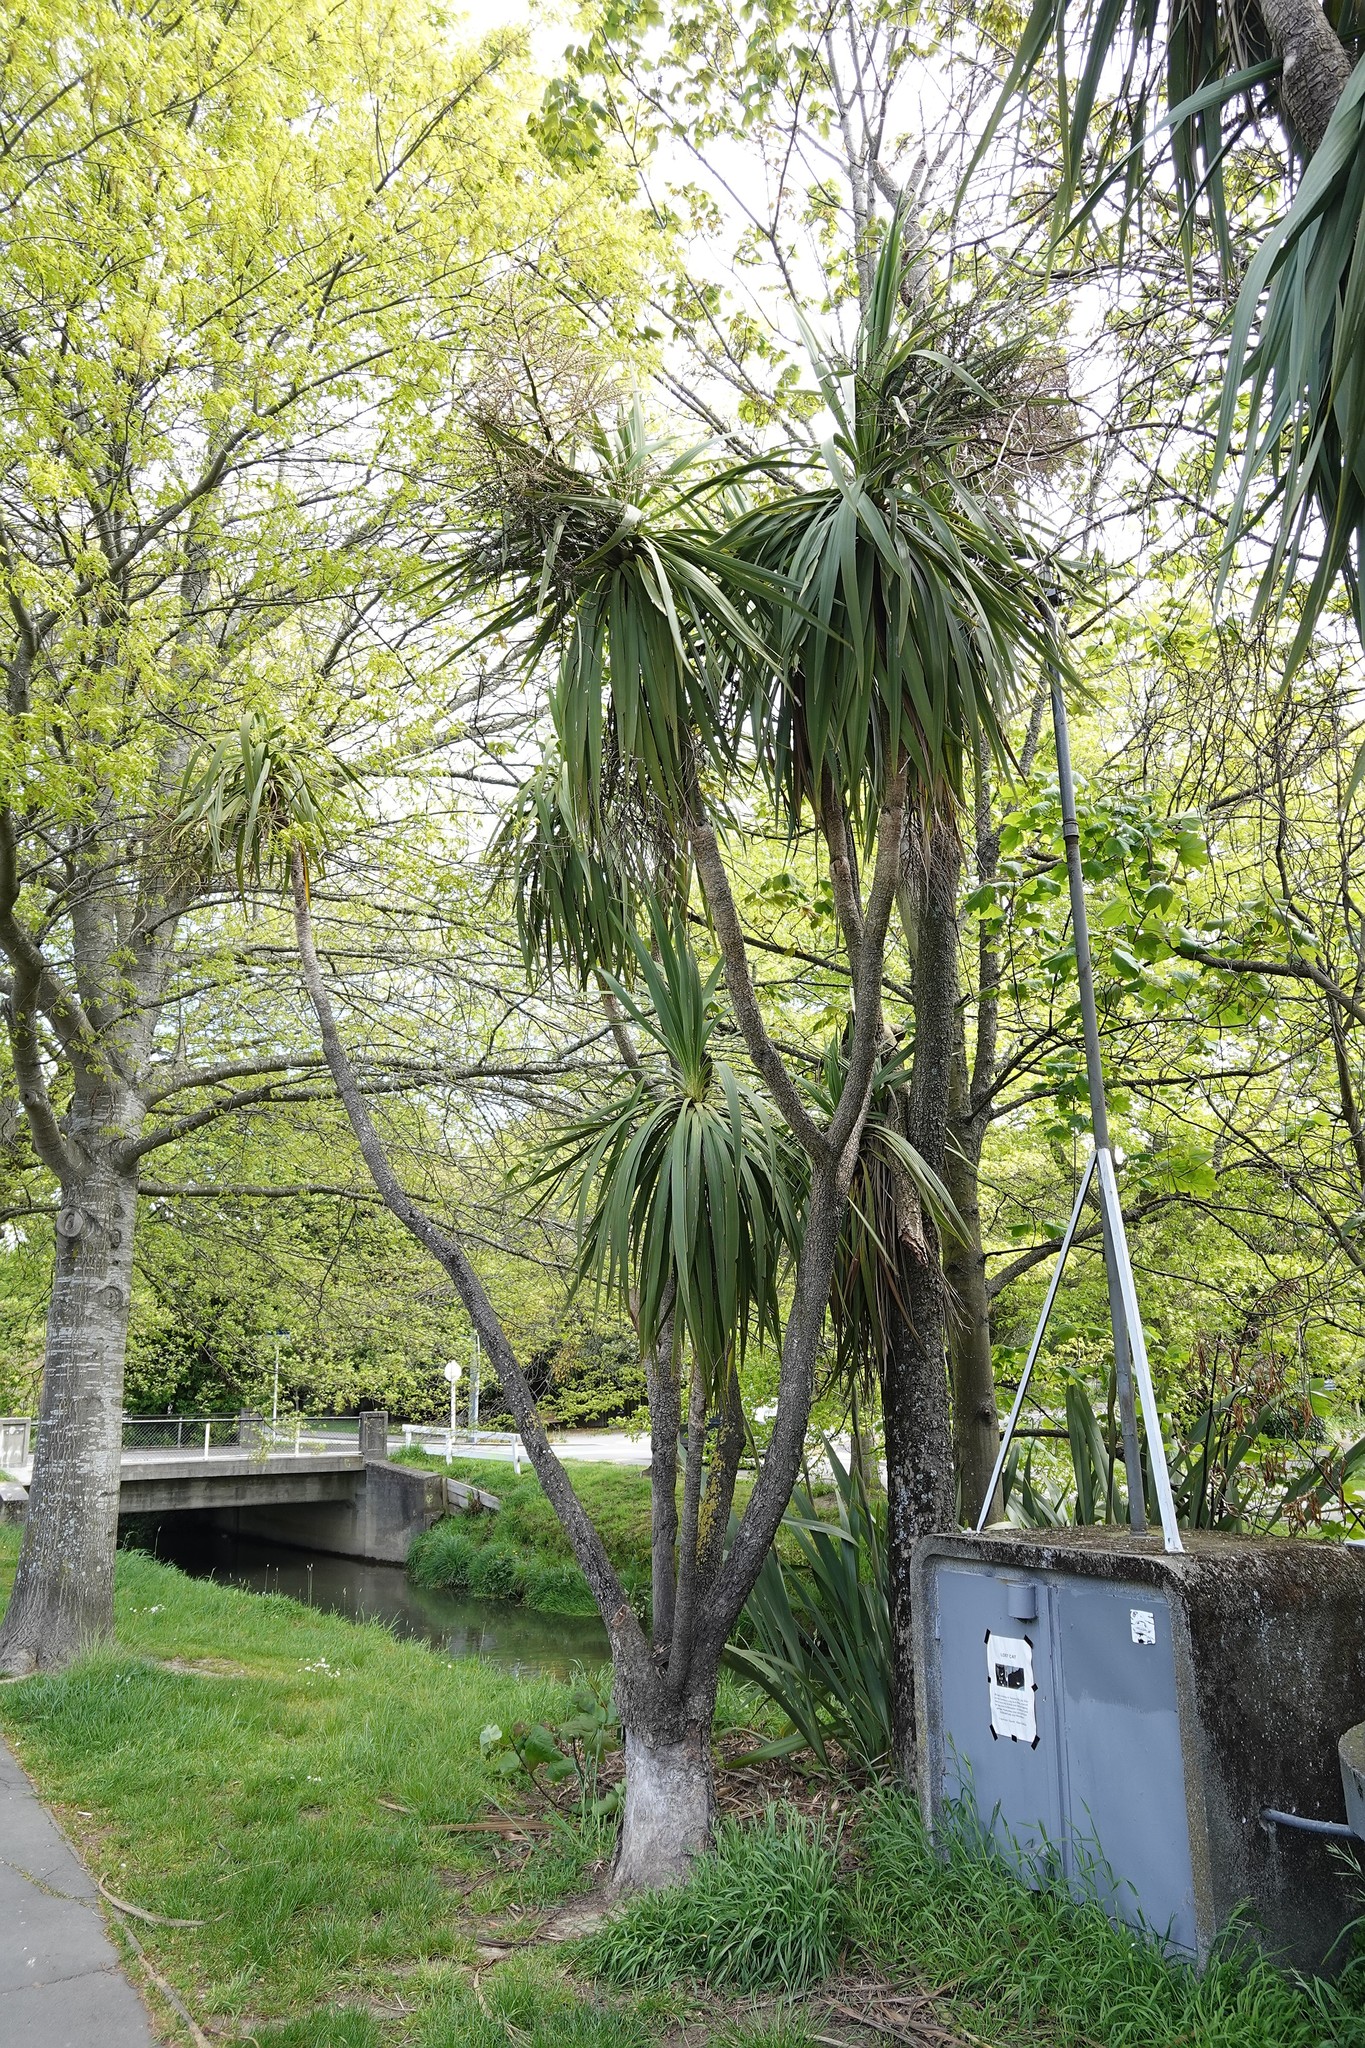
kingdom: Plantae
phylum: Tracheophyta
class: Liliopsida
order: Asparagales
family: Asparagaceae
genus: Cordyline
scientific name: Cordyline australis
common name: Cabbage-palm
